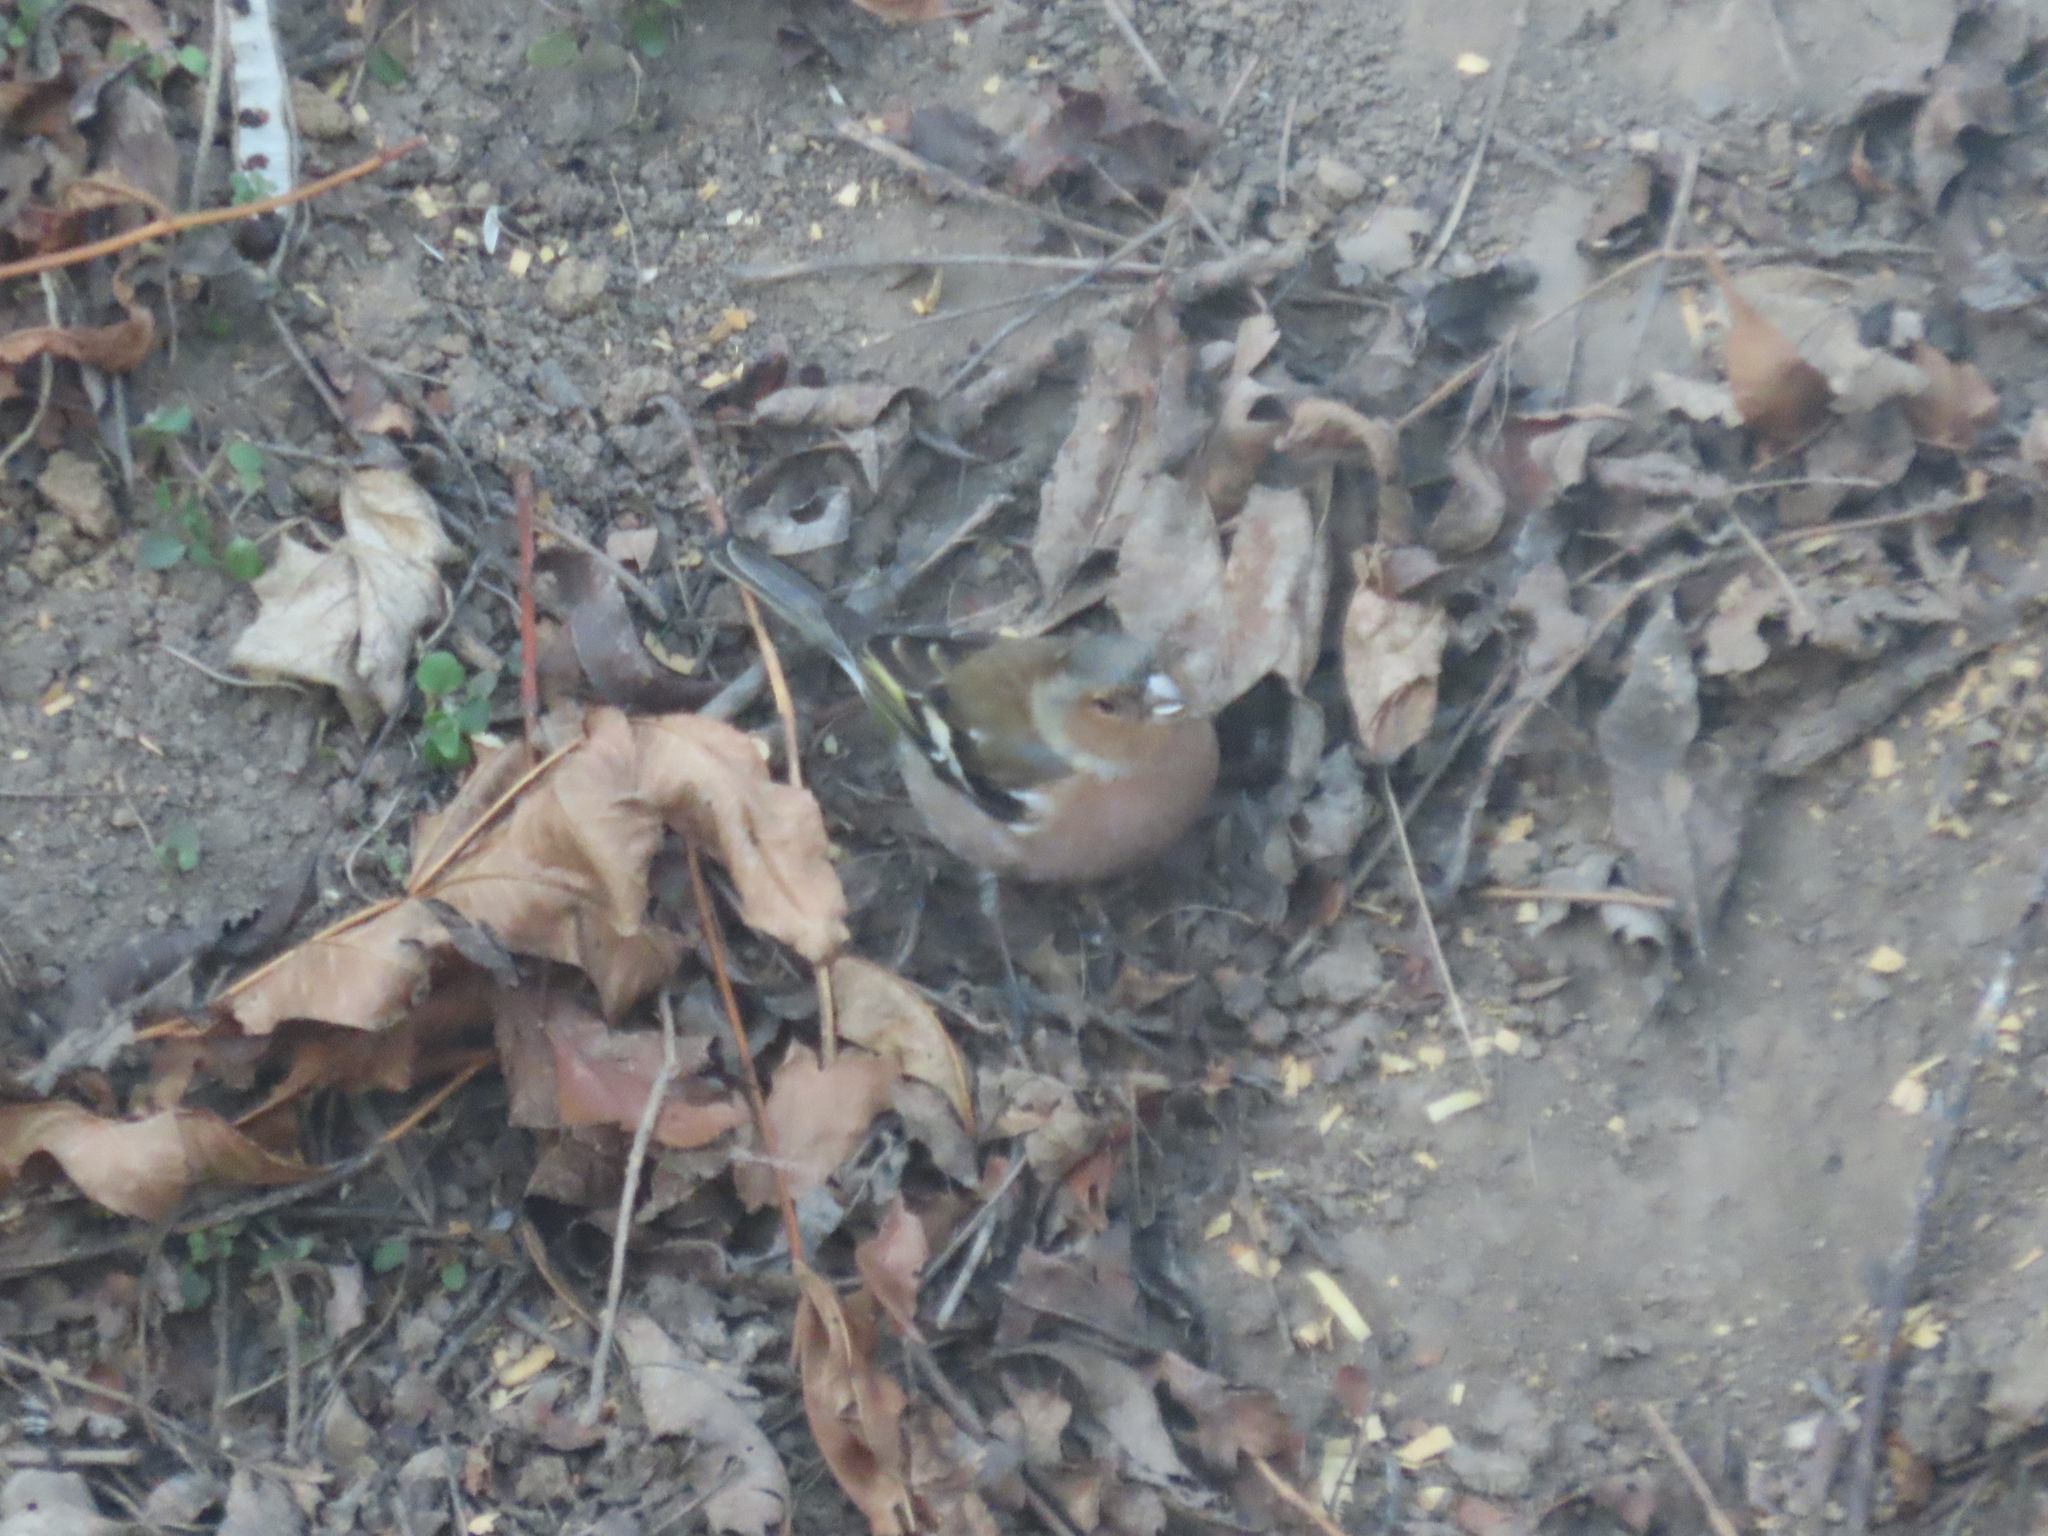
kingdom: Animalia
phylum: Chordata
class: Aves
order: Passeriformes
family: Fringillidae
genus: Fringilla
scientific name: Fringilla coelebs
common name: Common chaffinch
